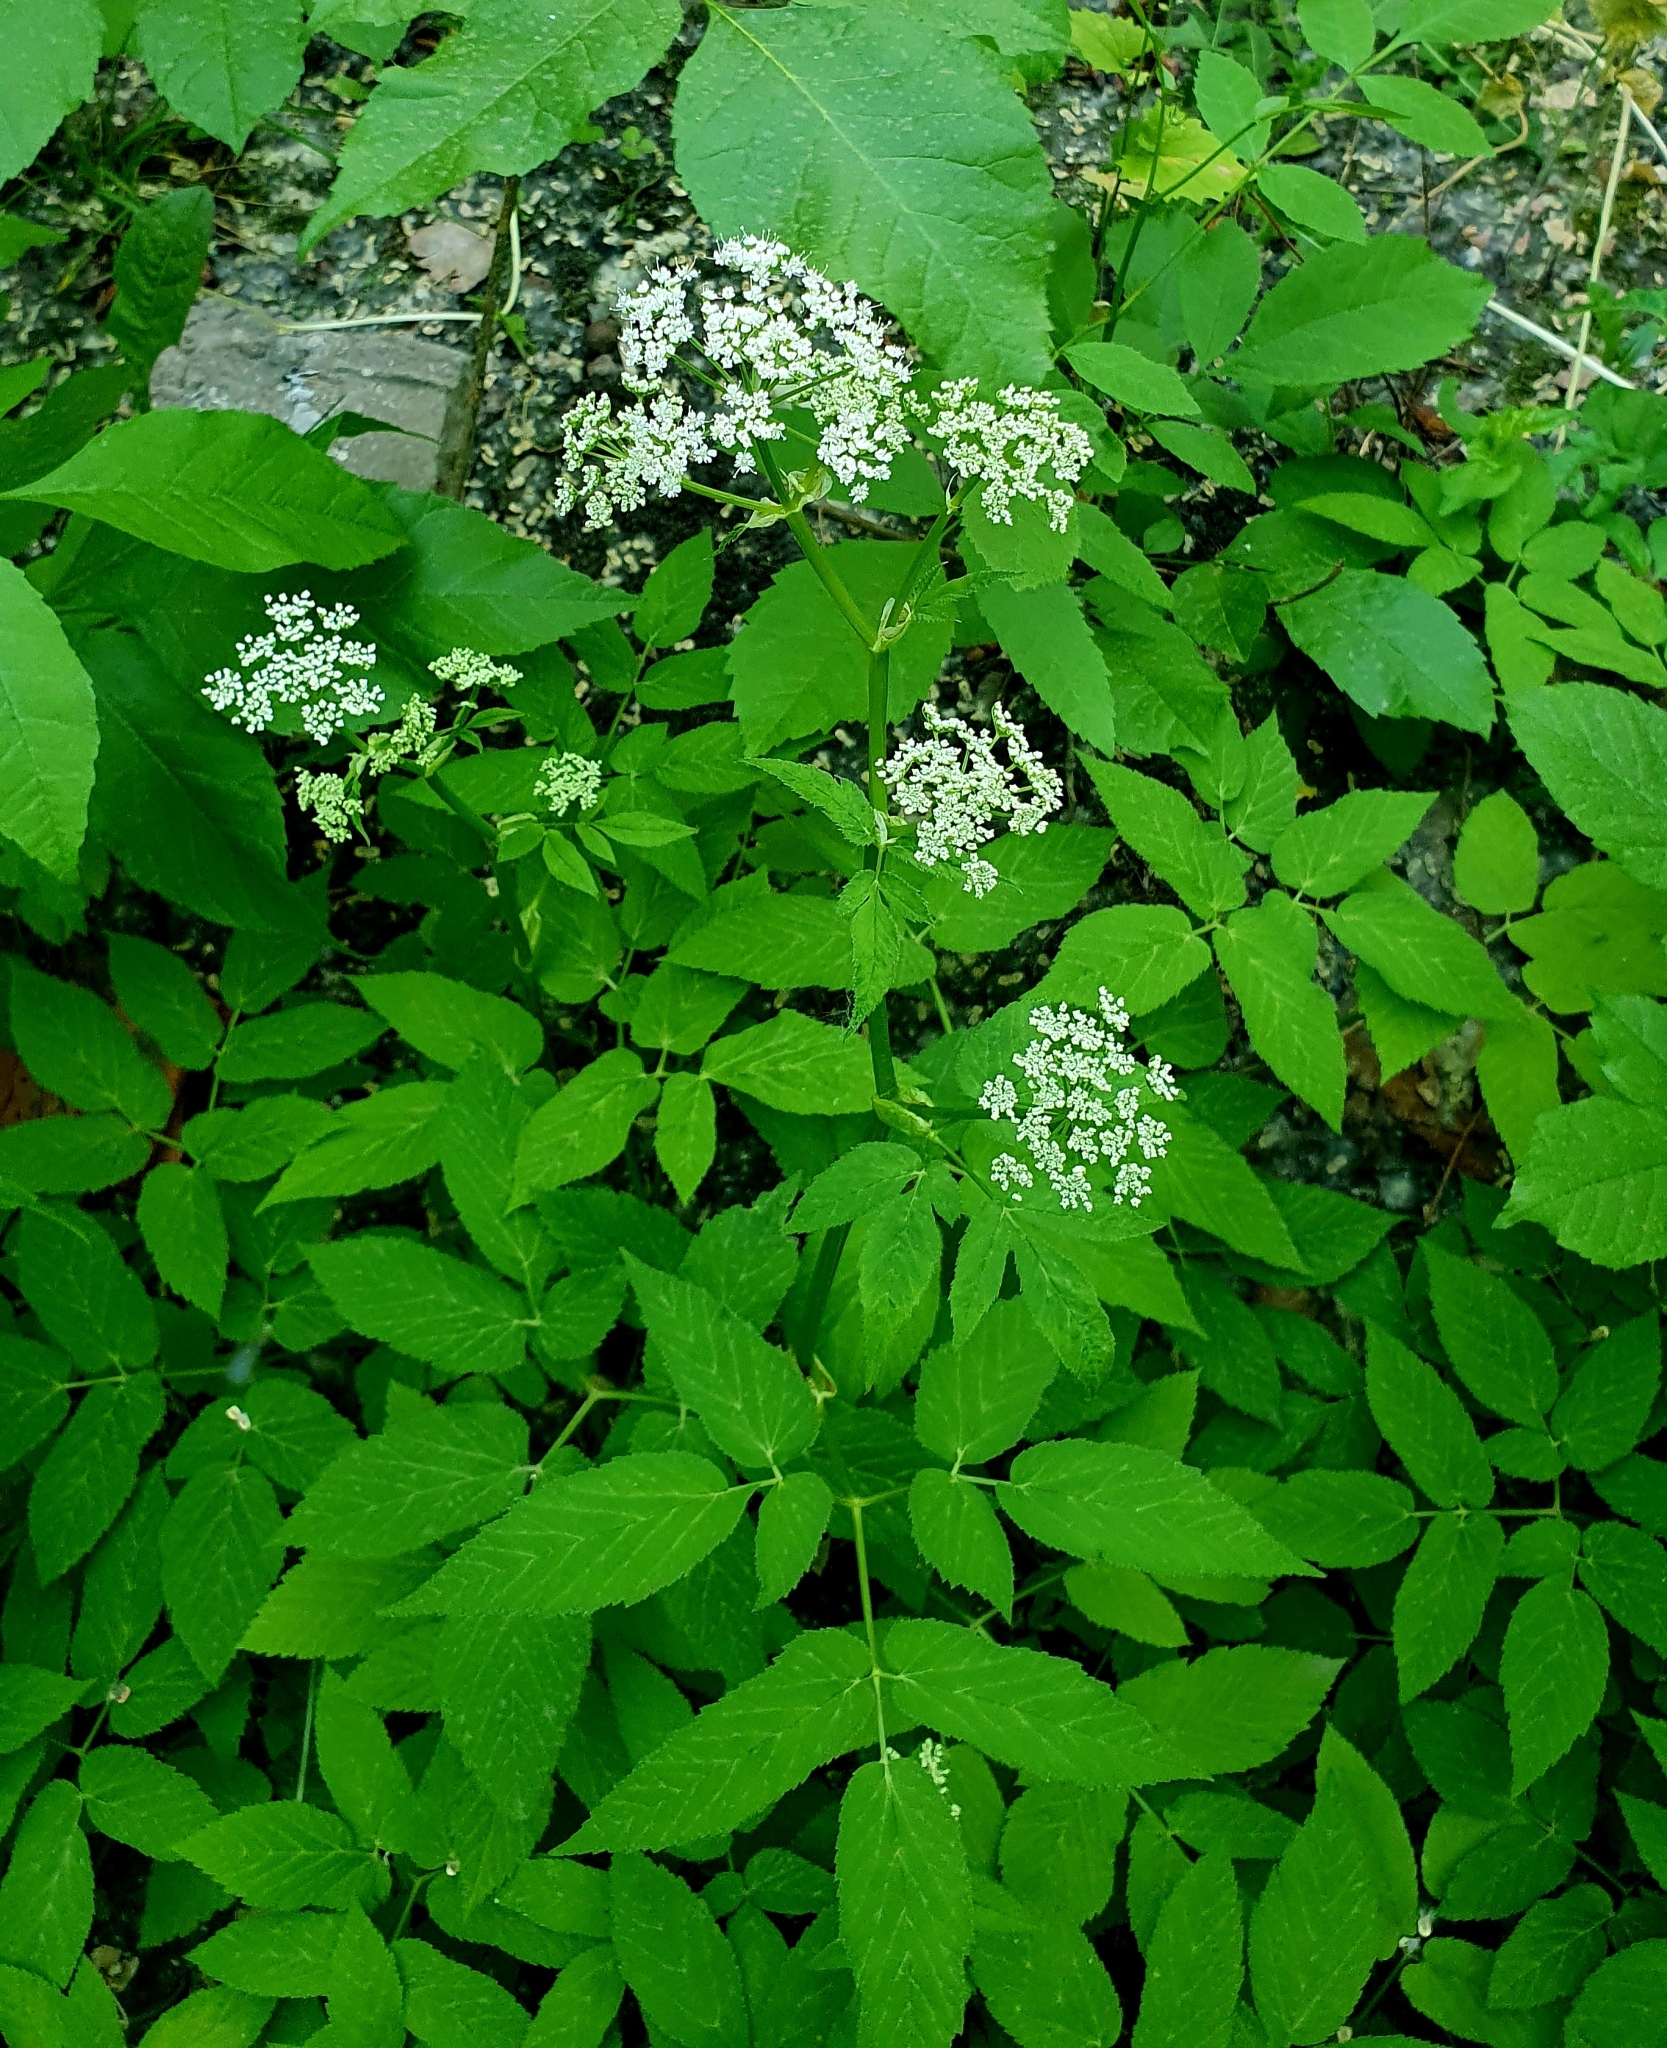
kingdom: Plantae
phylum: Tracheophyta
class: Magnoliopsida
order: Apiales
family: Apiaceae
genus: Aegopodium
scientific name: Aegopodium podagraria
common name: Ground-elder
